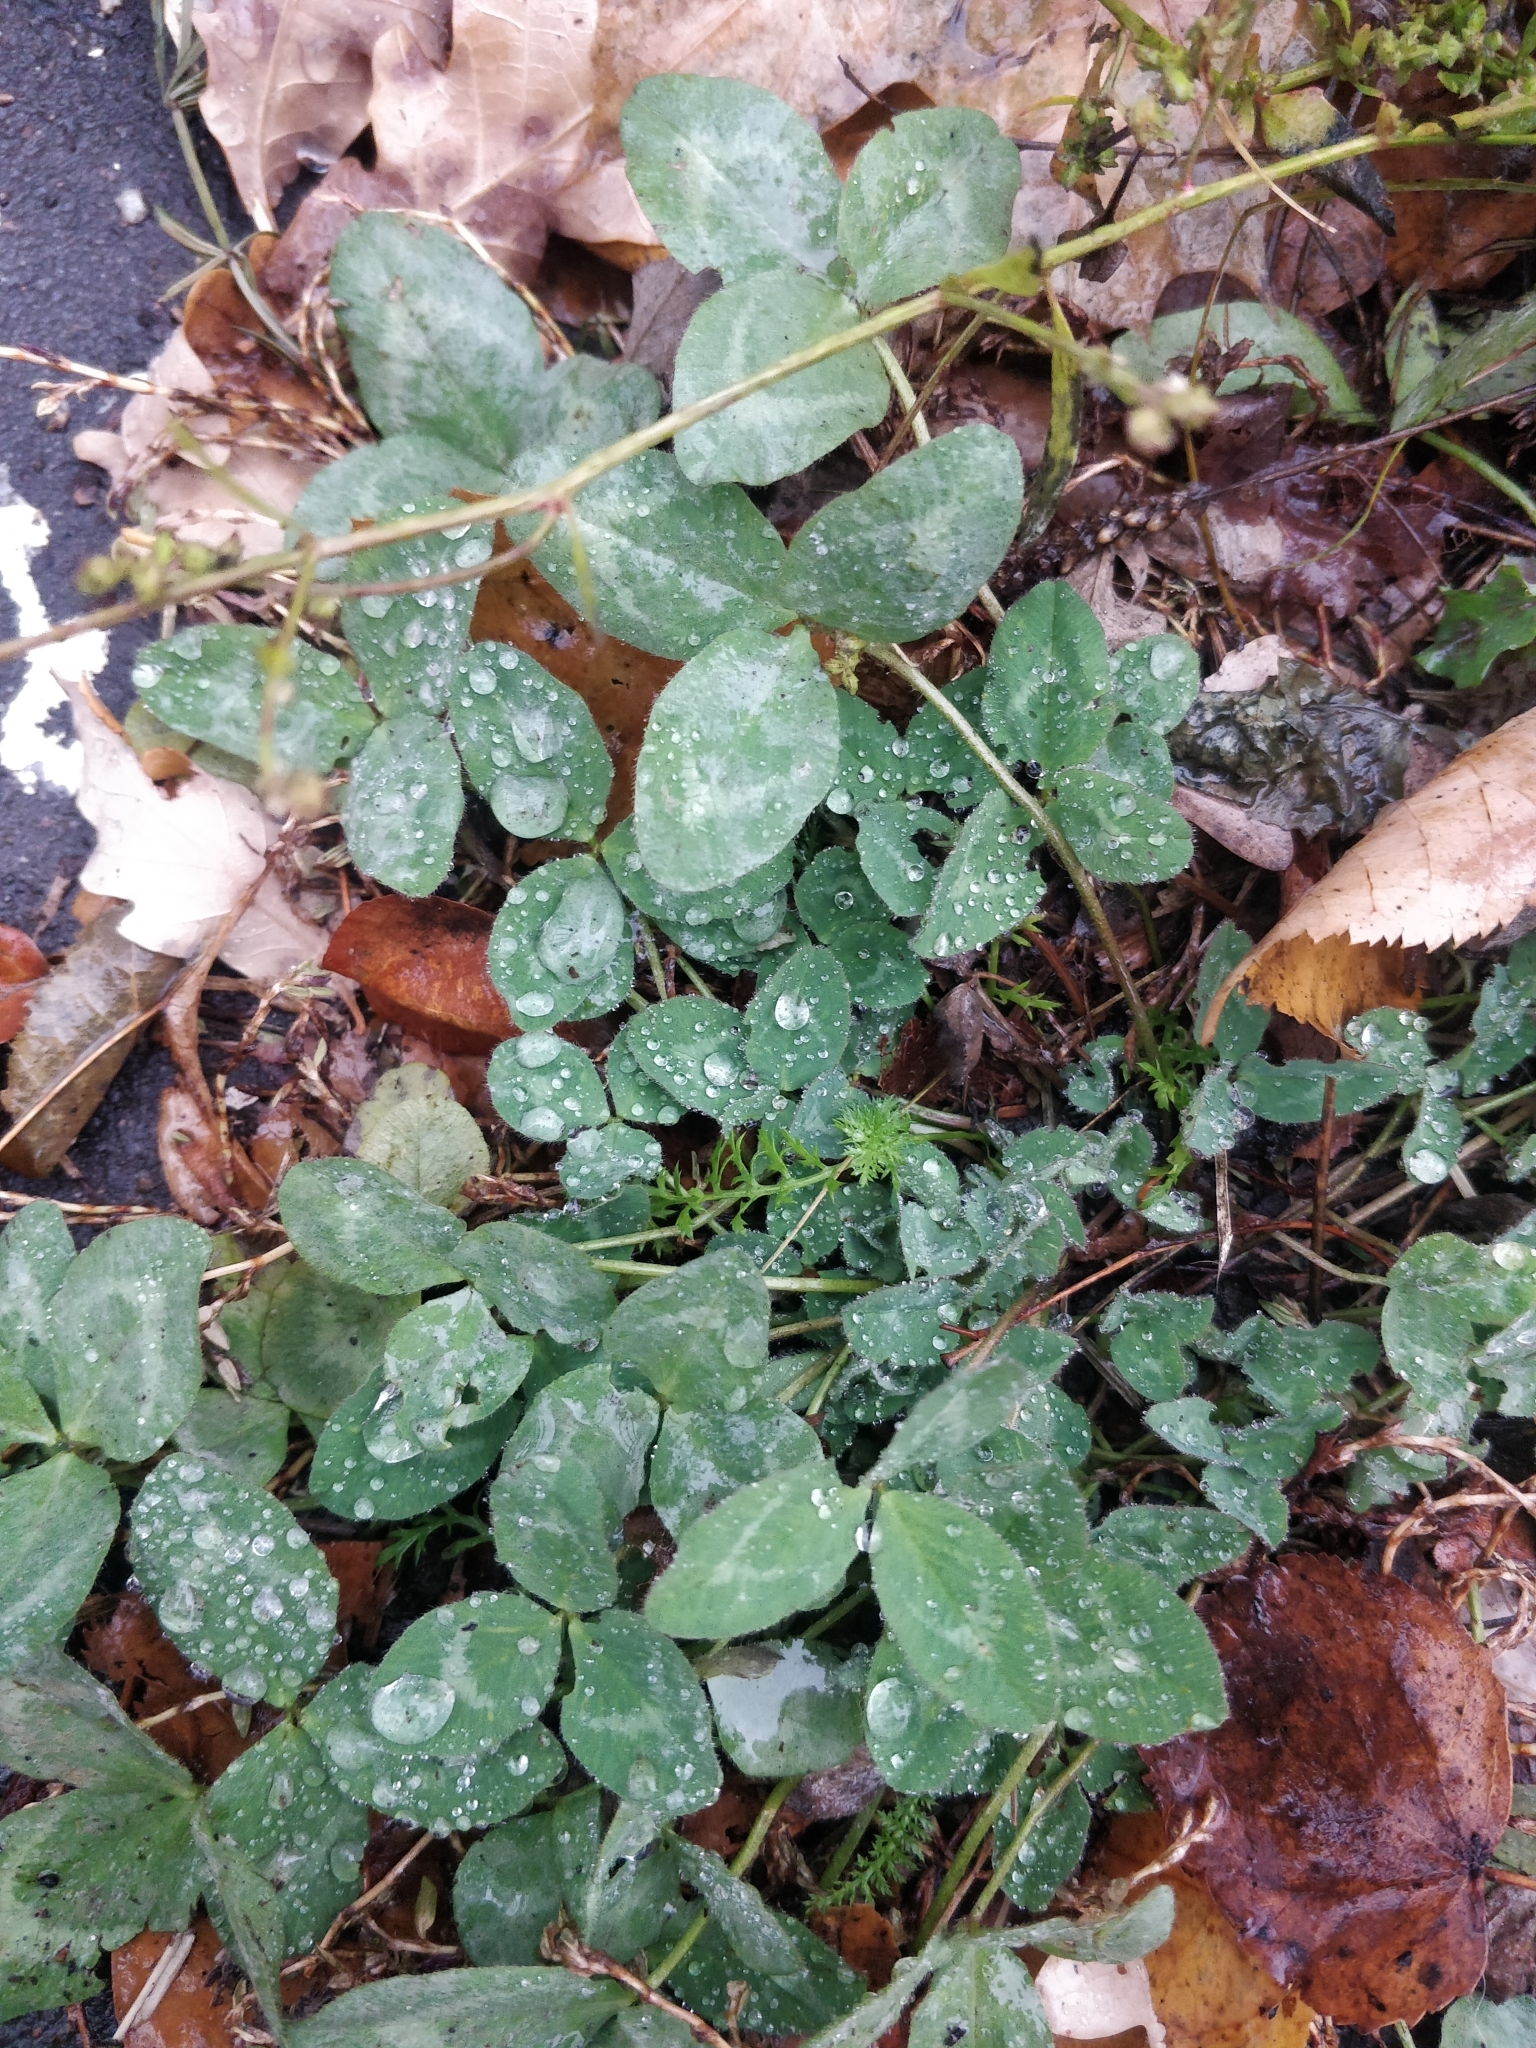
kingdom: Plantae
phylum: Tracheophyta
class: Magnoliopsida
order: Fabales
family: Fabaceae
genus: Trifolium
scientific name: Trifolium pratense
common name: Red clover
